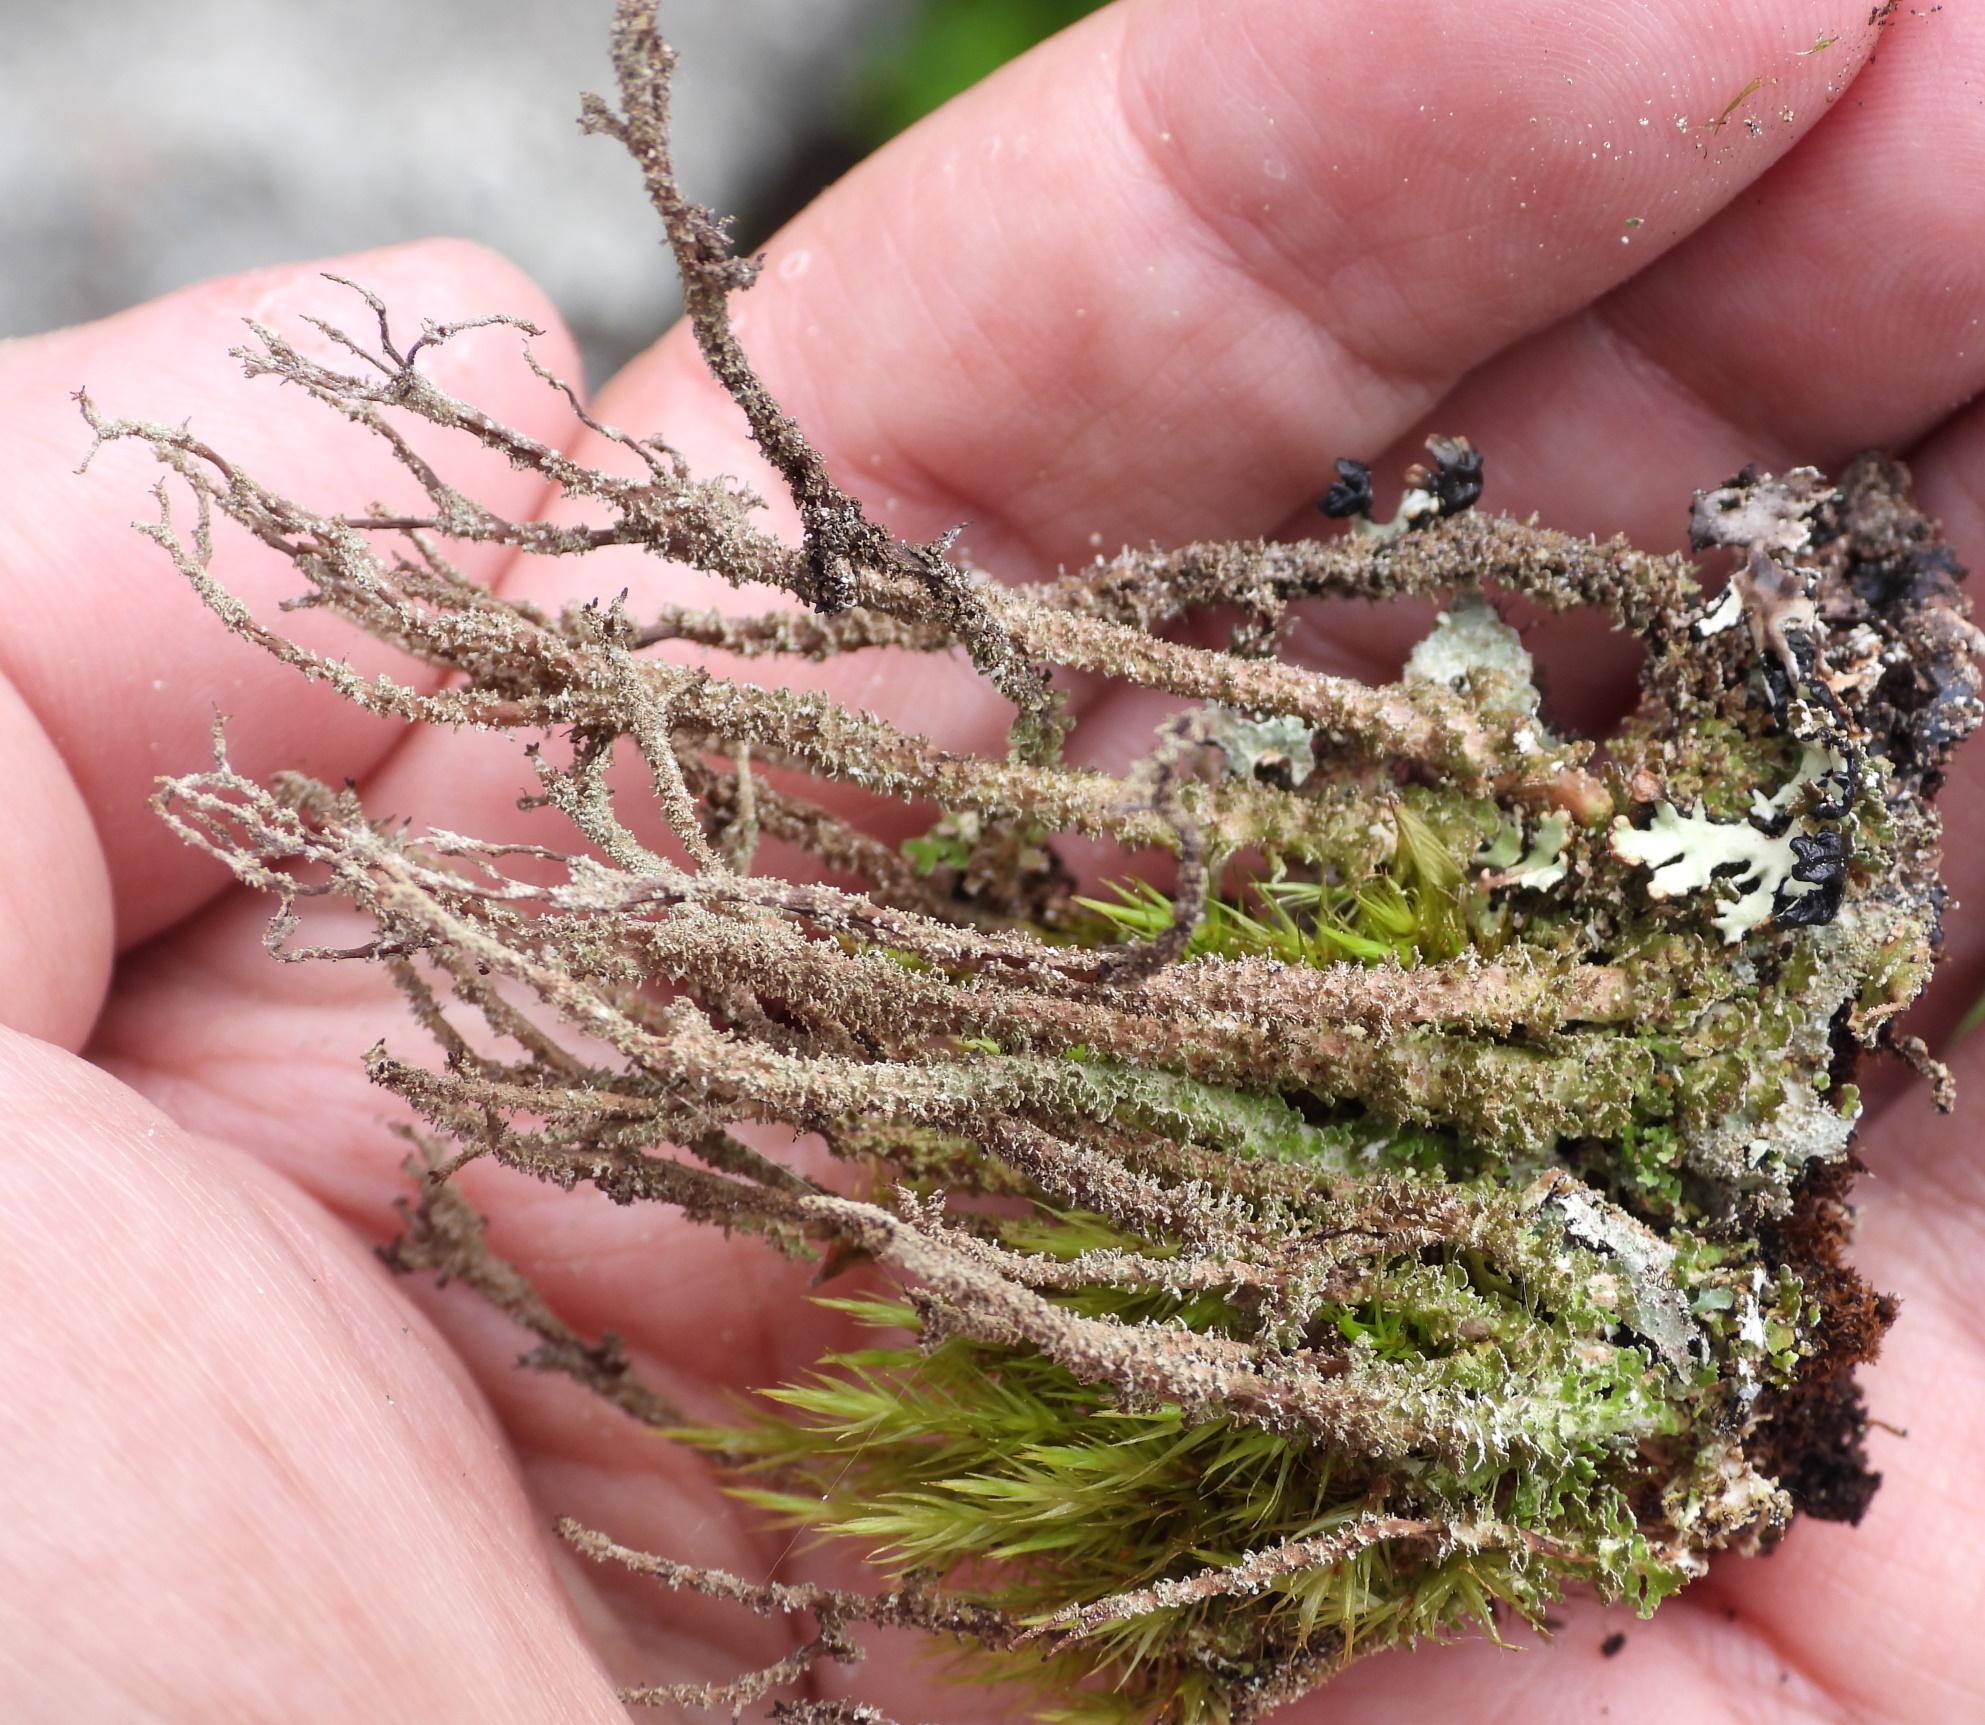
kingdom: Fungi
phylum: Ascomycota
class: Lecanoromycetes
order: Lecanorales
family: Cladoniaceae
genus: Cladonia
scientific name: Cladonia squamosa
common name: Dragon horn
